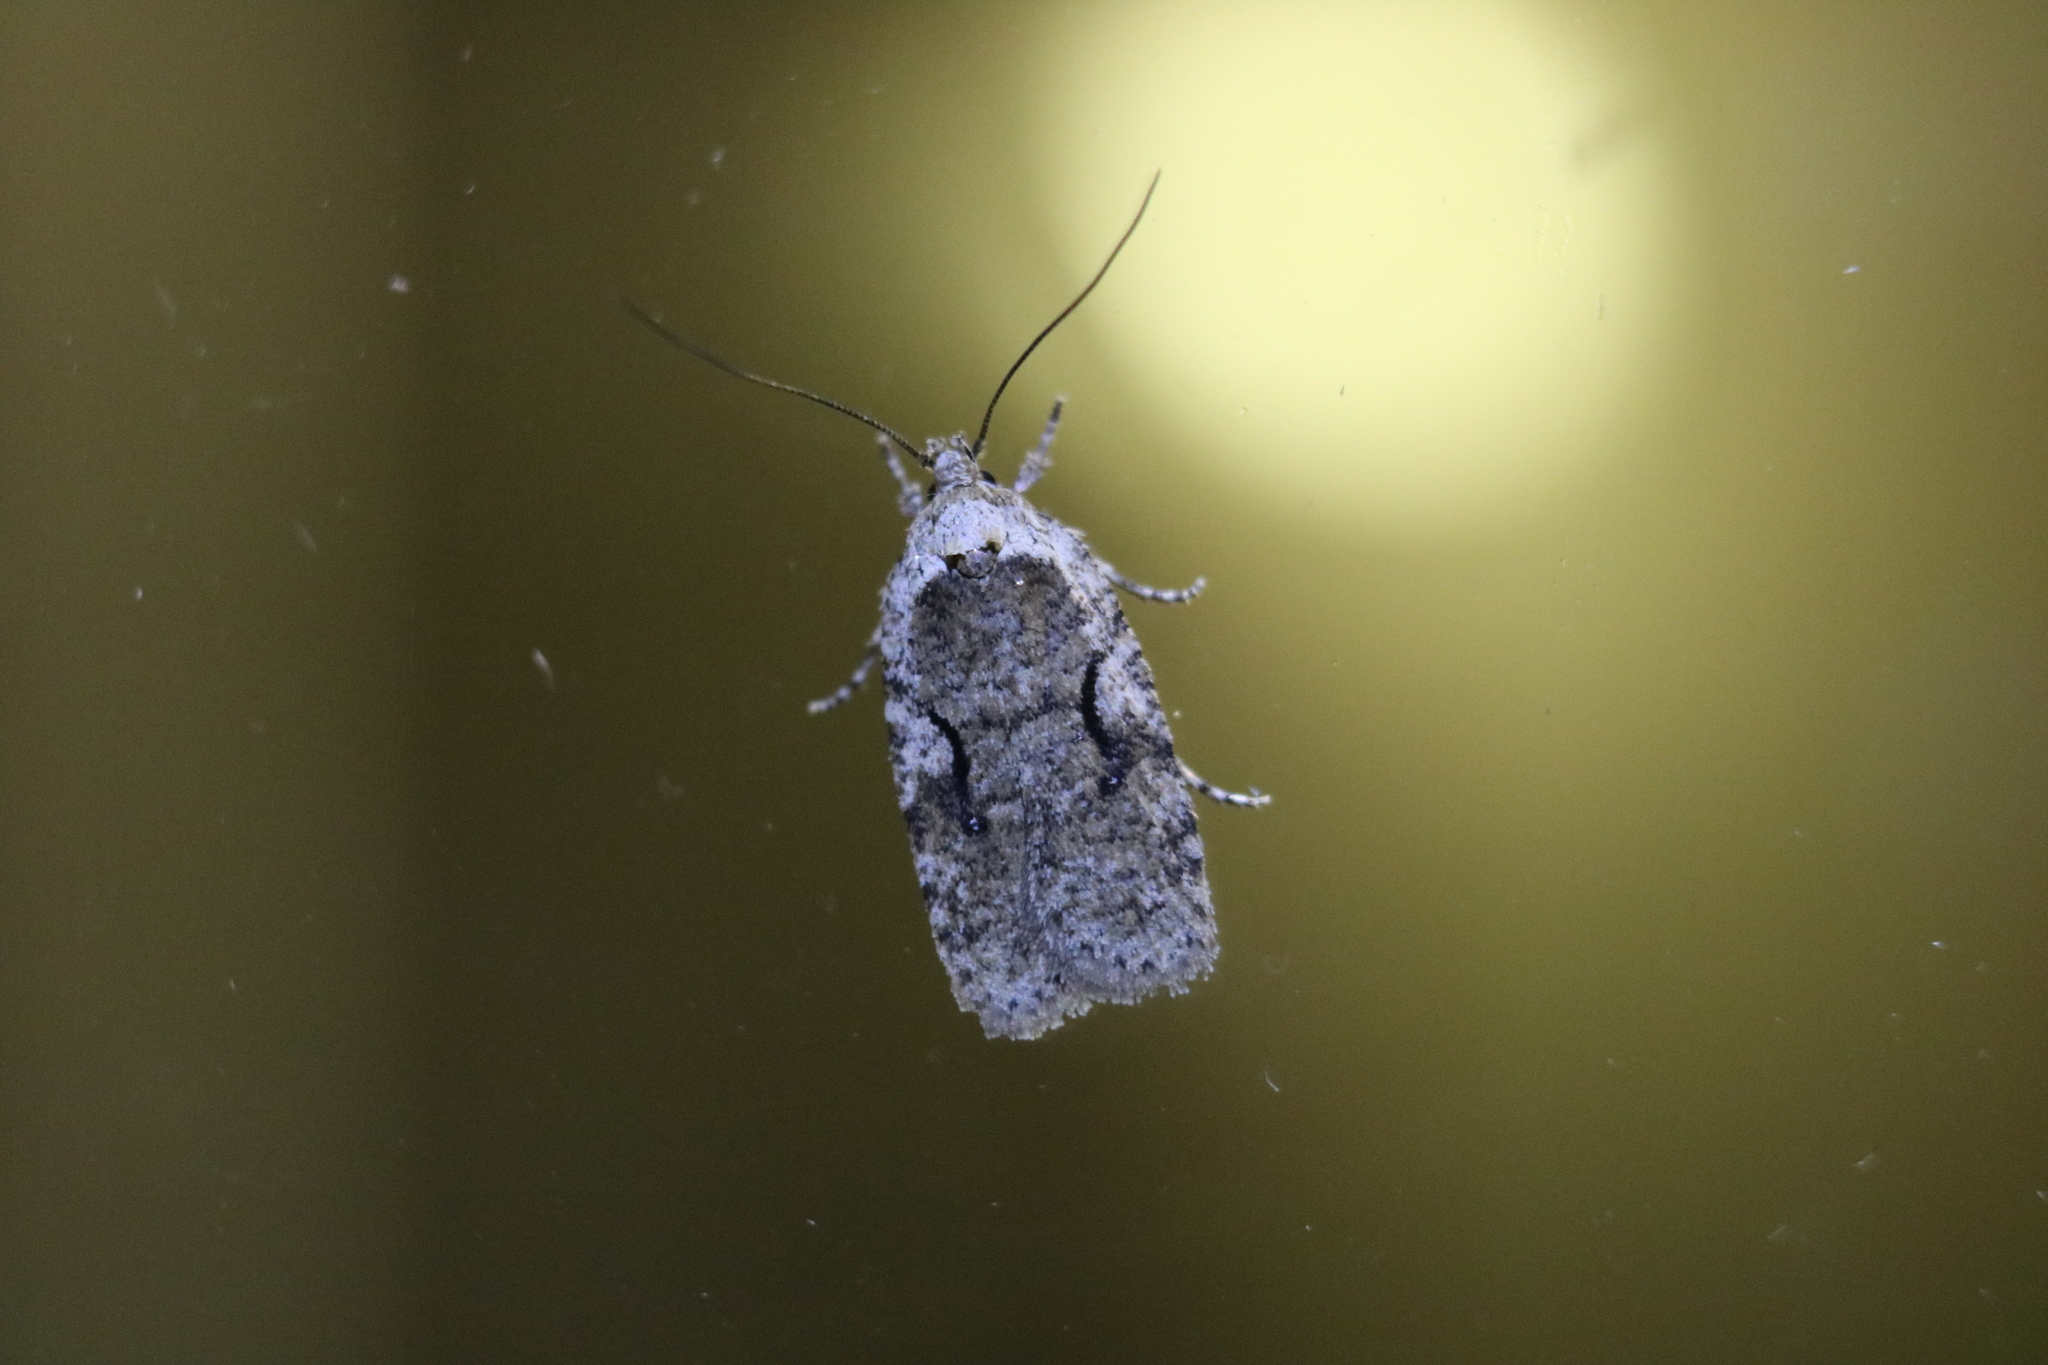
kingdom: Animalia
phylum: Arthropoda
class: Insecta
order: Lepidoptera
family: Depressariidae
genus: Agonopterix
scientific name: Agonopterix curvilineella
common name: Curved-line agonopterix moth
